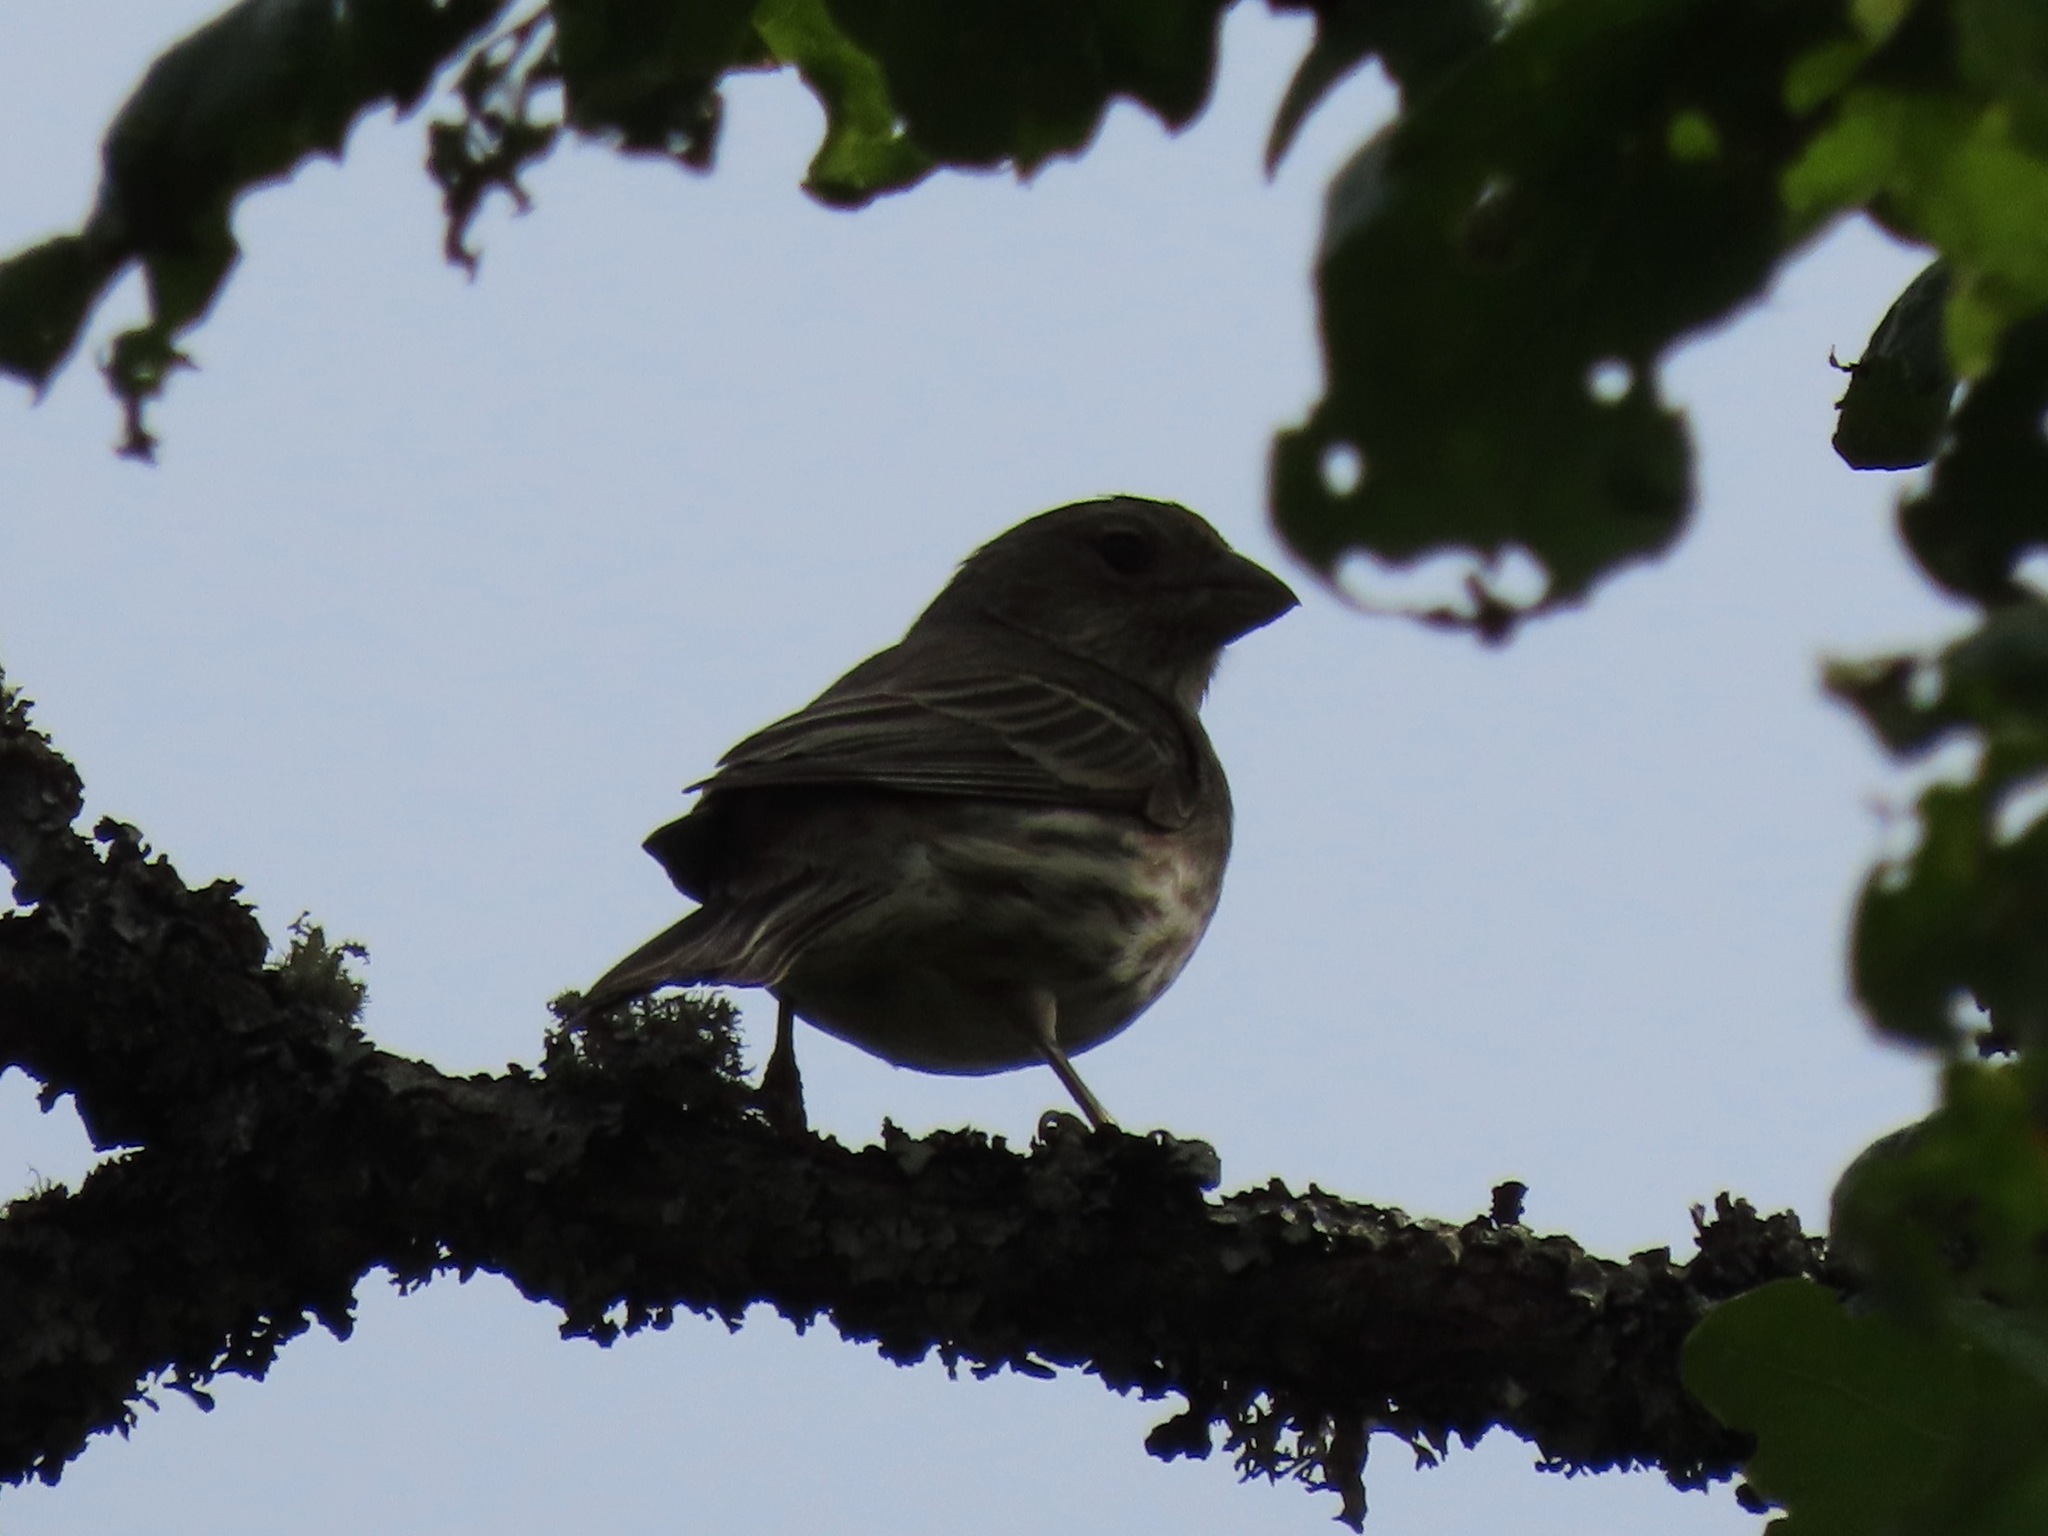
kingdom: Animalia
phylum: Chordata
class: Aves
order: Passeriformes
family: Fringillidae
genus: Haemorhous
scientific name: Haemorhous mexicanus
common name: House finch
